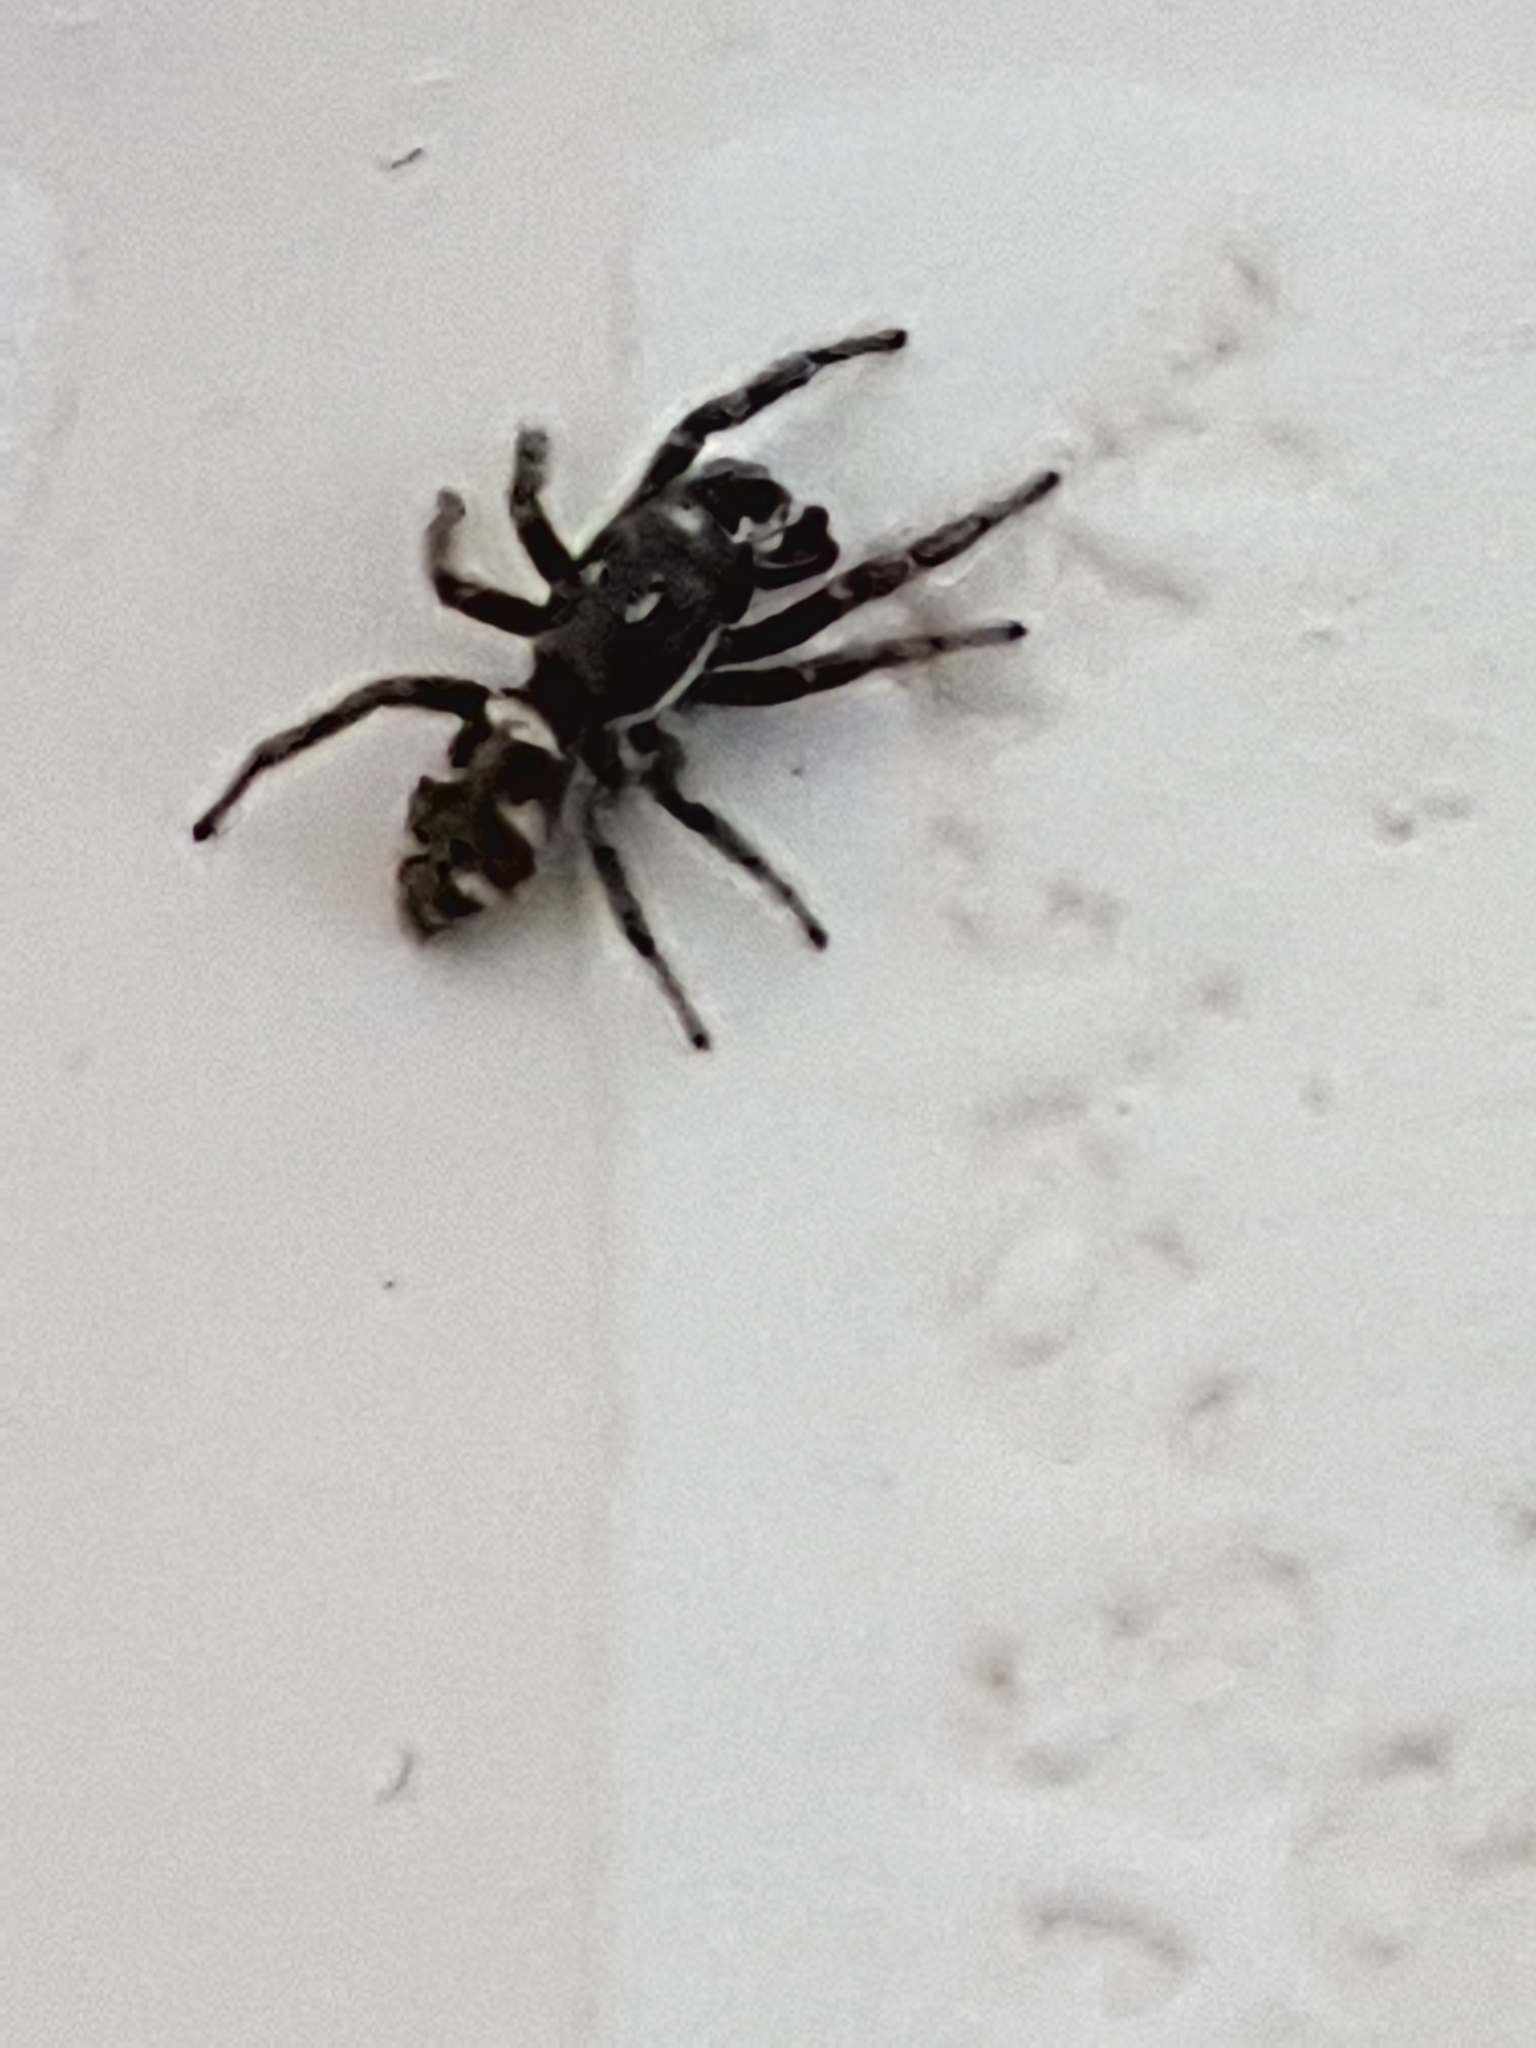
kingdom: Animalia
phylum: Arthropoda
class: Arachnida
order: Araneae
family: Salticidae
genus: Salticus
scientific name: Salticus scenicus
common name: Zebra jumper
